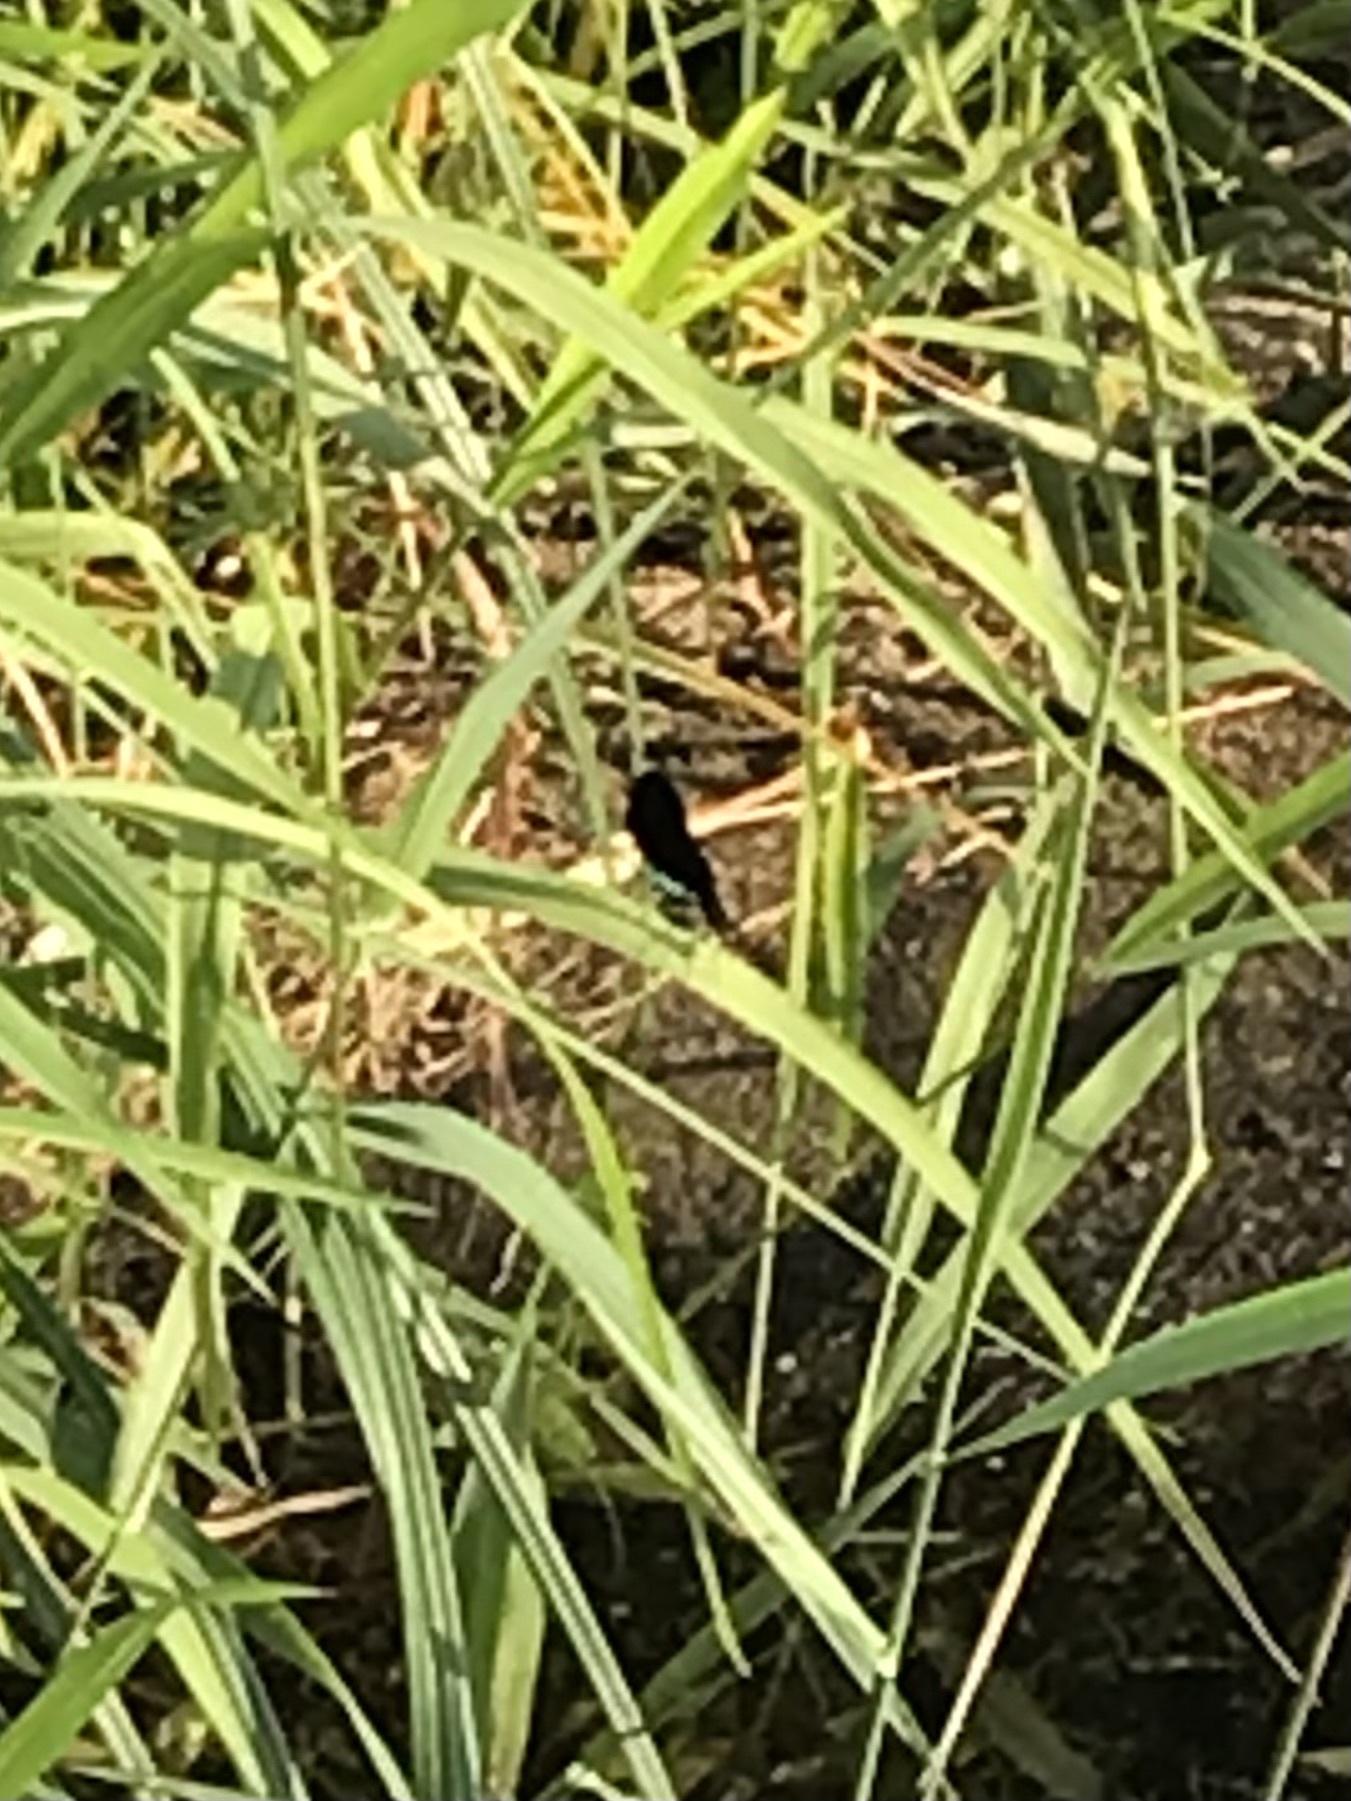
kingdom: Animalia
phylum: Arthropoda
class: Insecta
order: Odonata
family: Calopterygidae
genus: Calopteryx
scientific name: Calopteryx maculata
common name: Ebony jewelwing
